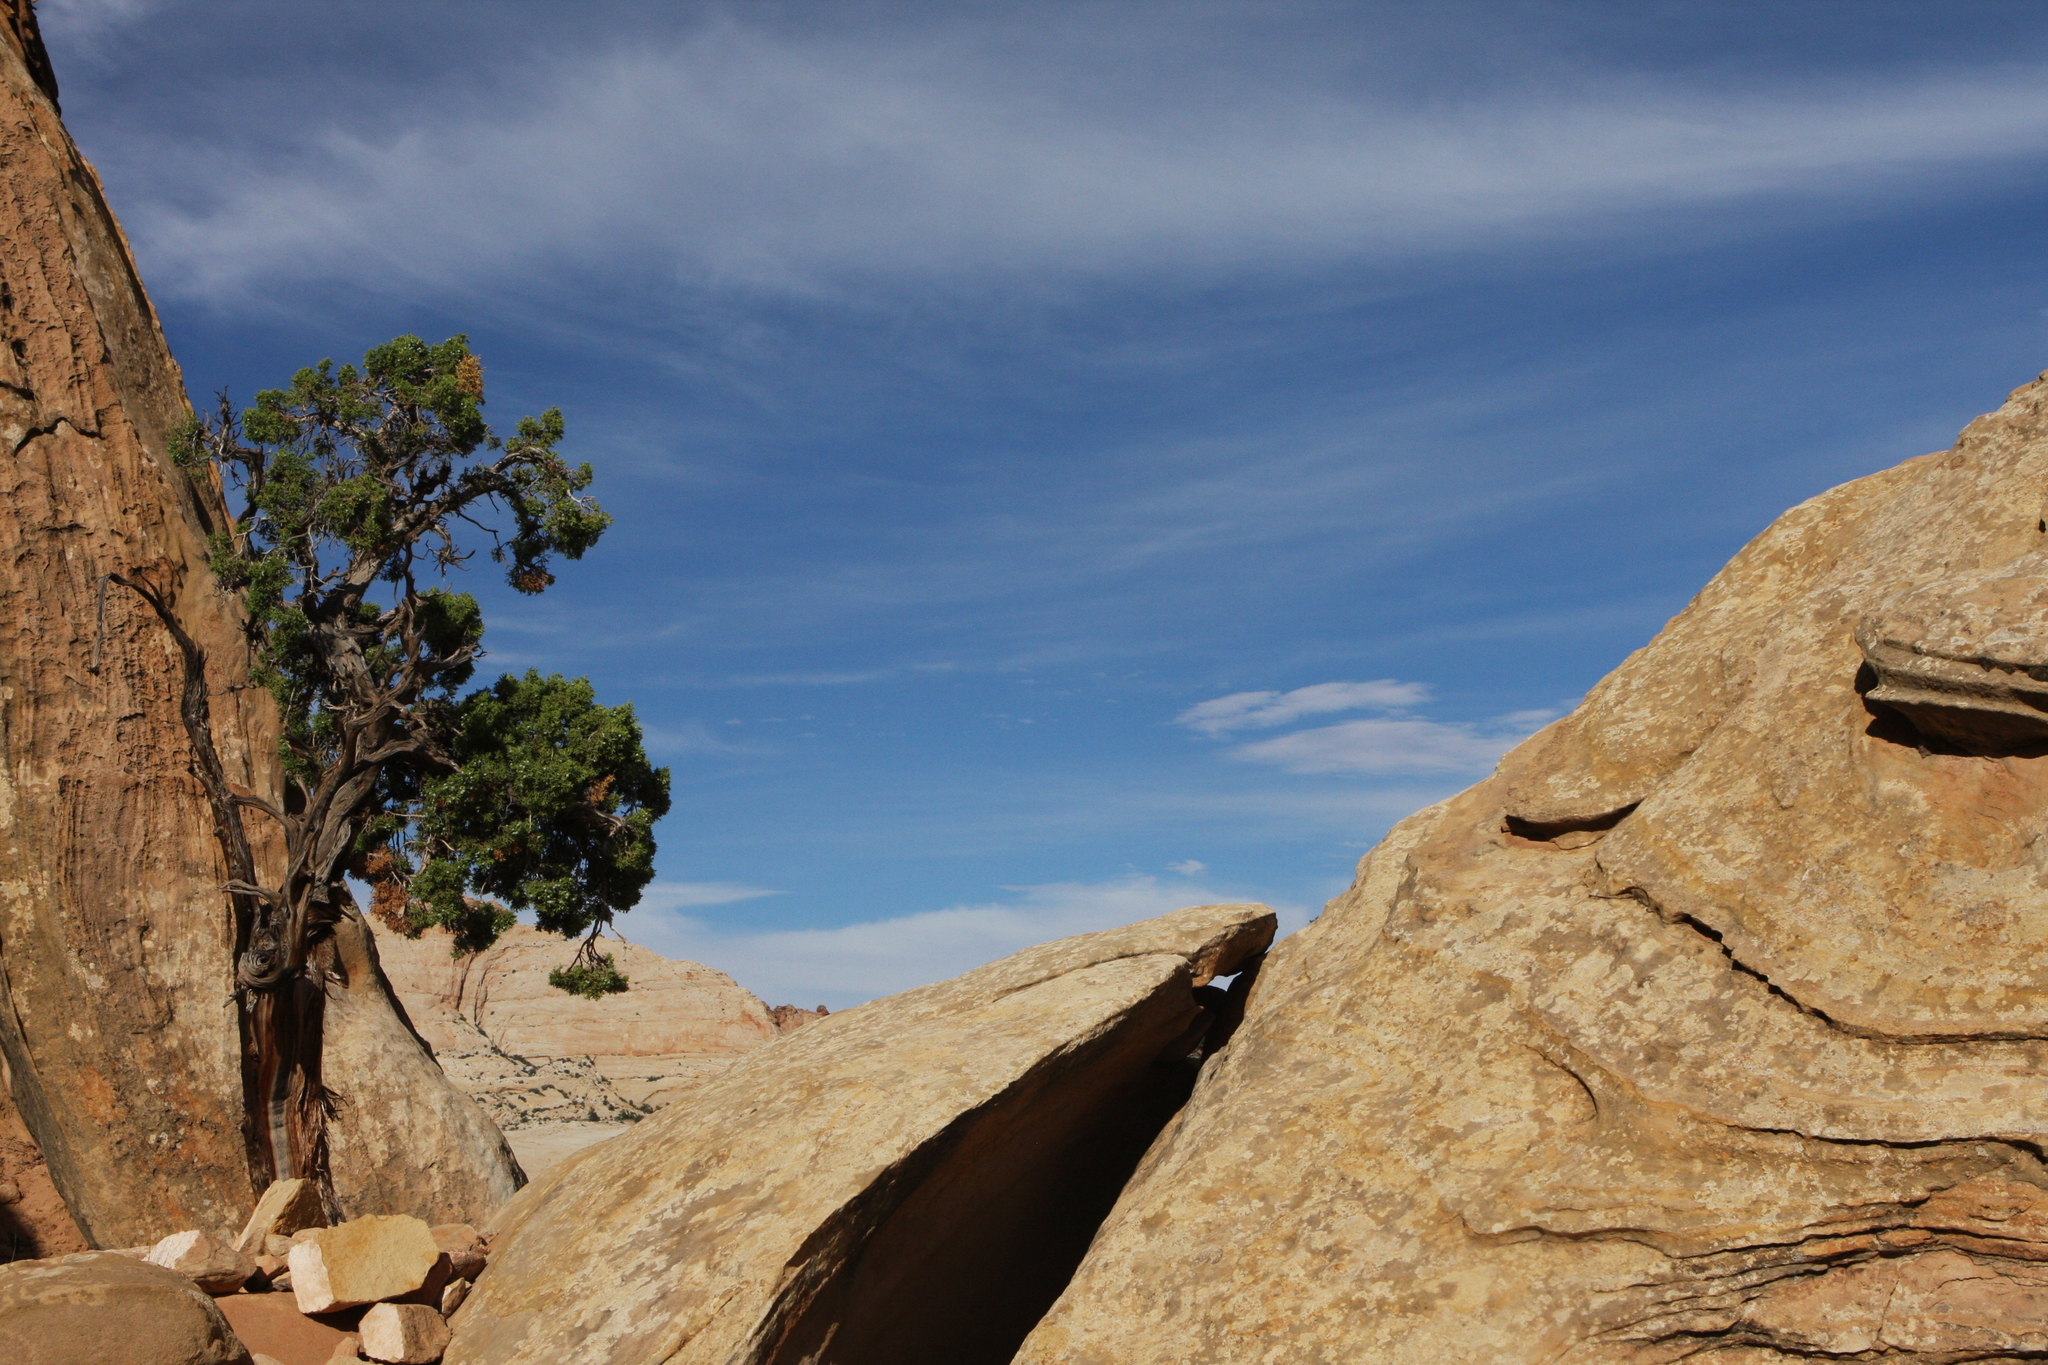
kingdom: Plantae
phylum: Tracheophyta
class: Pinopsida
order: Pinales
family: Cupressaceae
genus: Juniperus
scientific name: Juniperus osteosperma
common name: Utah juniper
